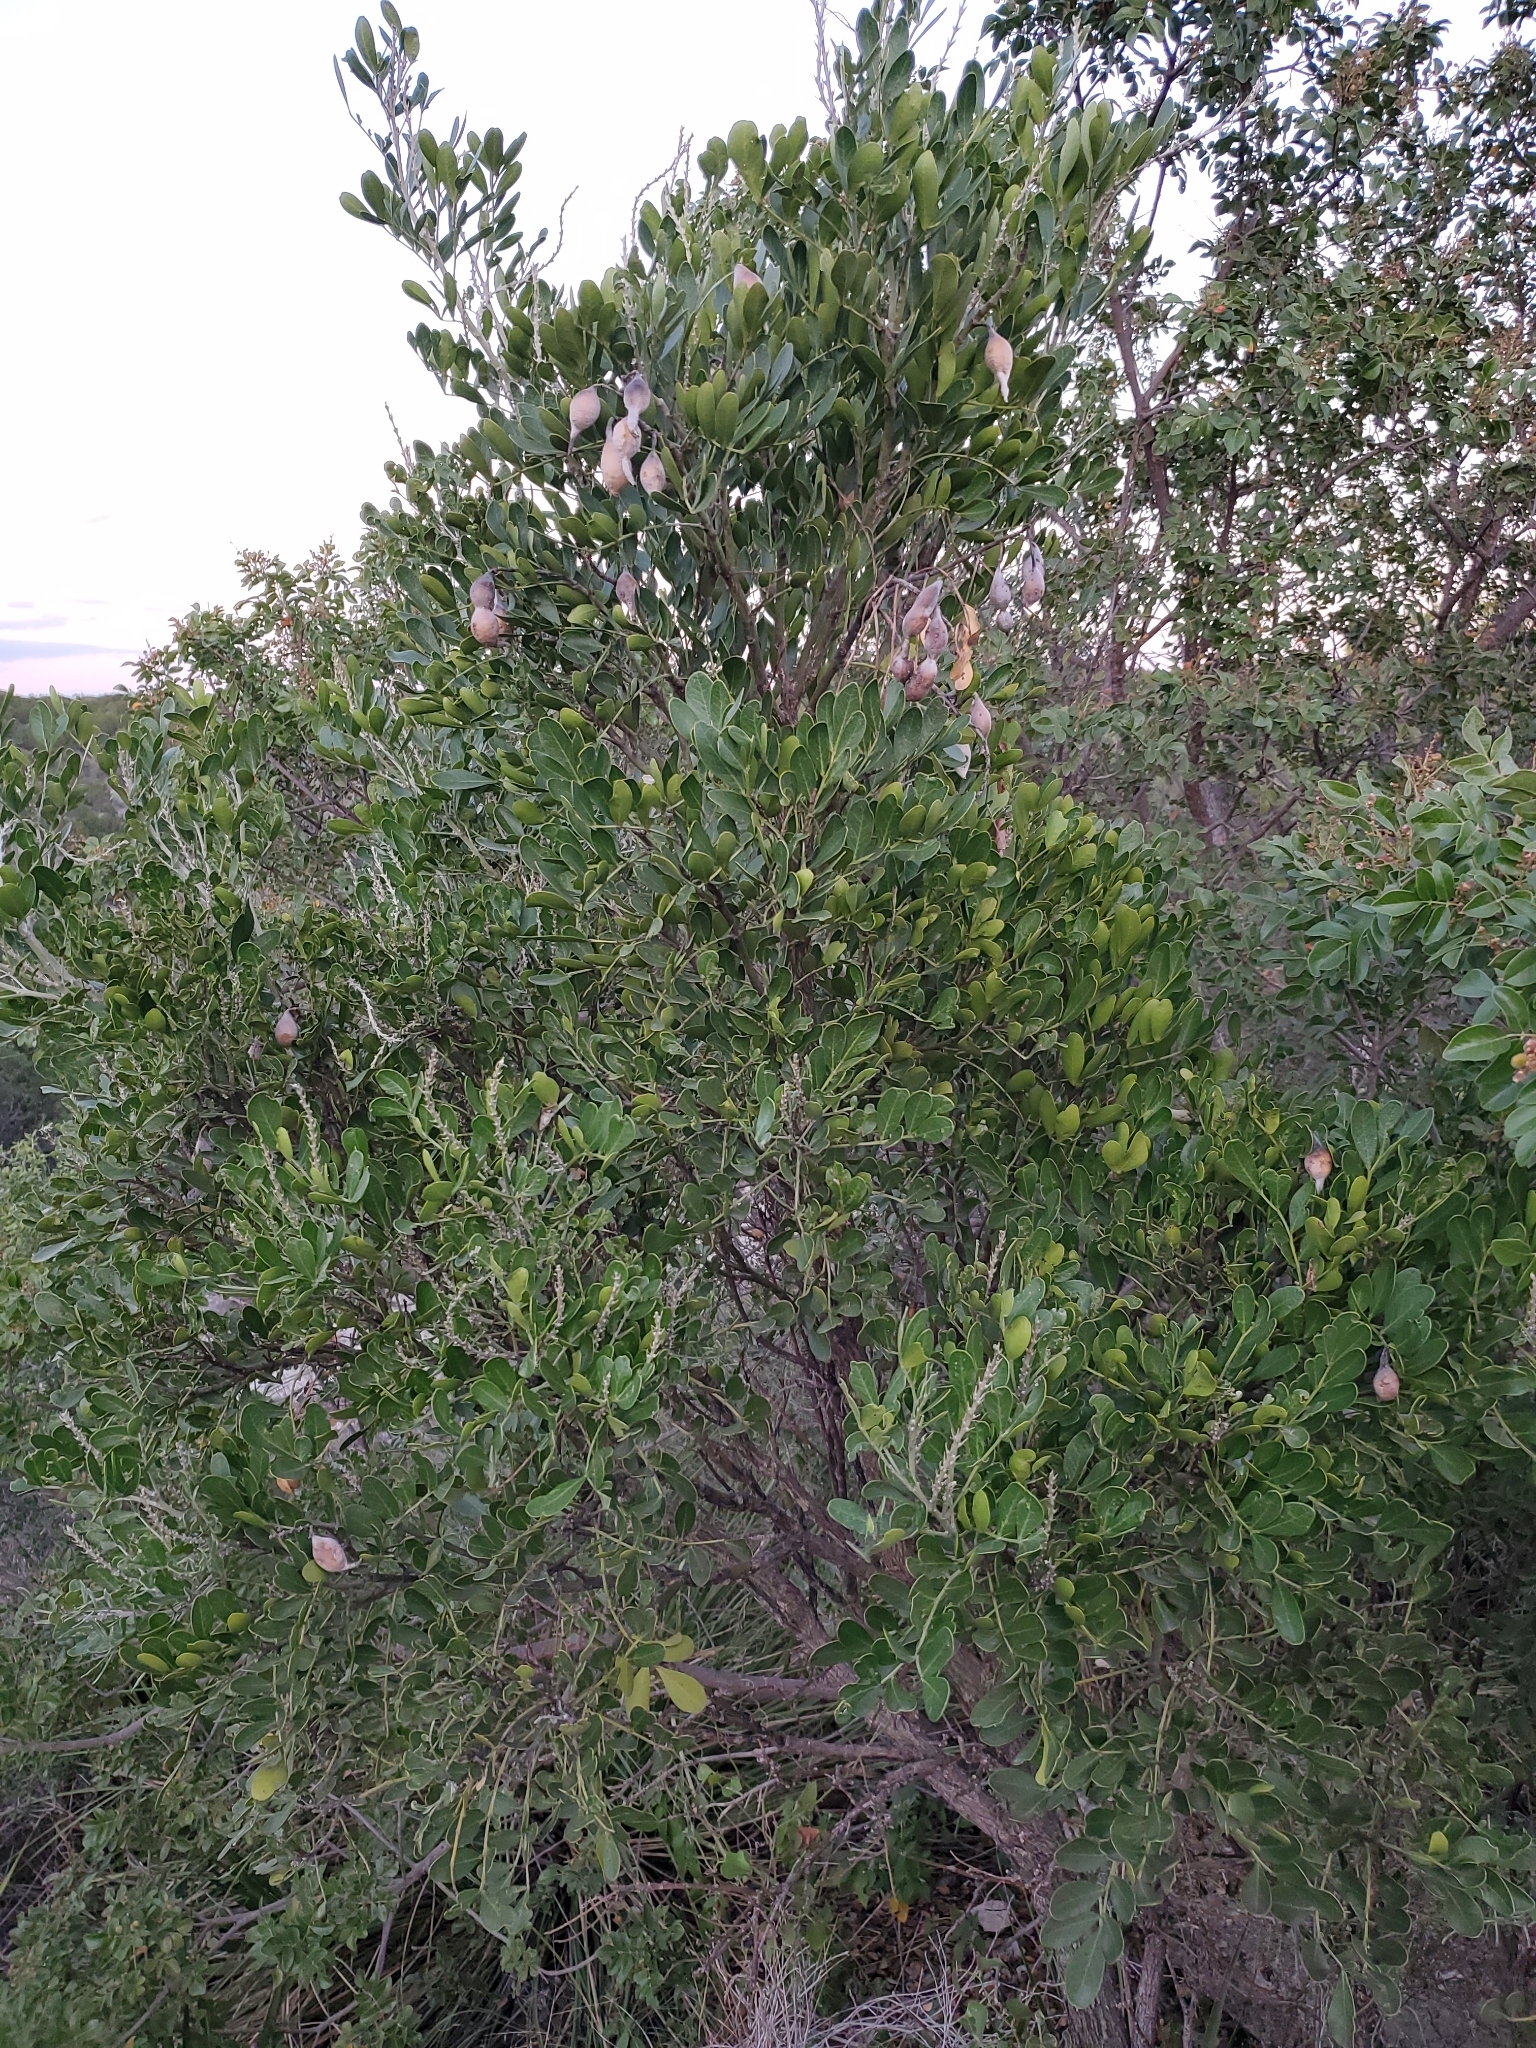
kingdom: Plantae
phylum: Tracheophyta
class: Magnoliopsida
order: Fabales
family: Fabaceae
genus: Dermatophyllum
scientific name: Dermatophyllum secundiflorum
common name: Texas-mountain-laurel
